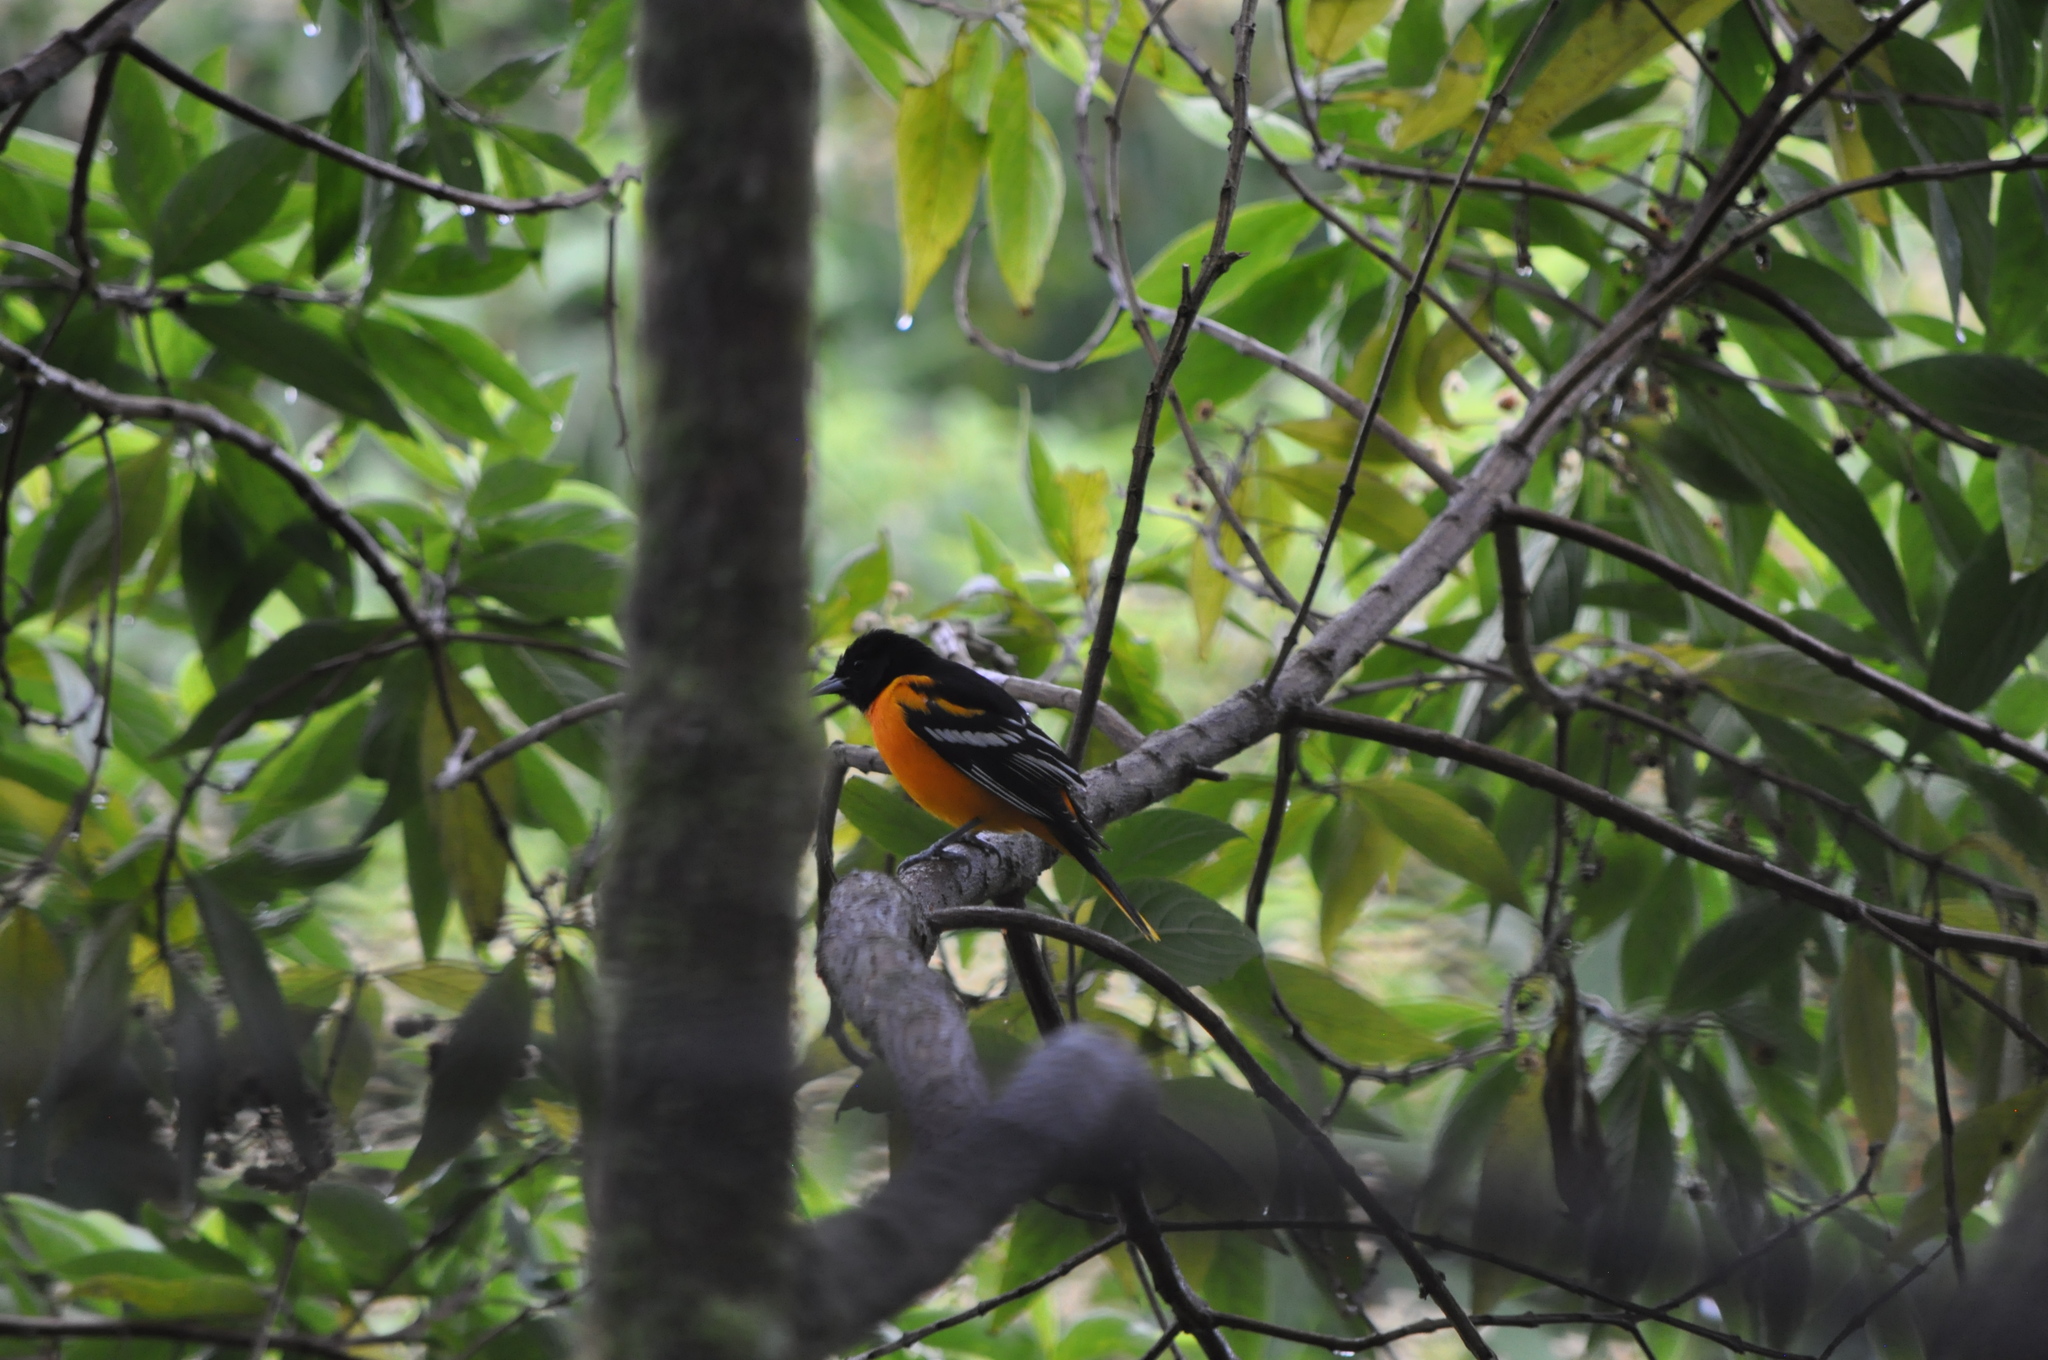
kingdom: Animalia
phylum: Chordata
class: Aves
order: Passeriformes
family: Icteridae
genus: Icterus
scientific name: Icterus galbula
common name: Baltimore oriole
